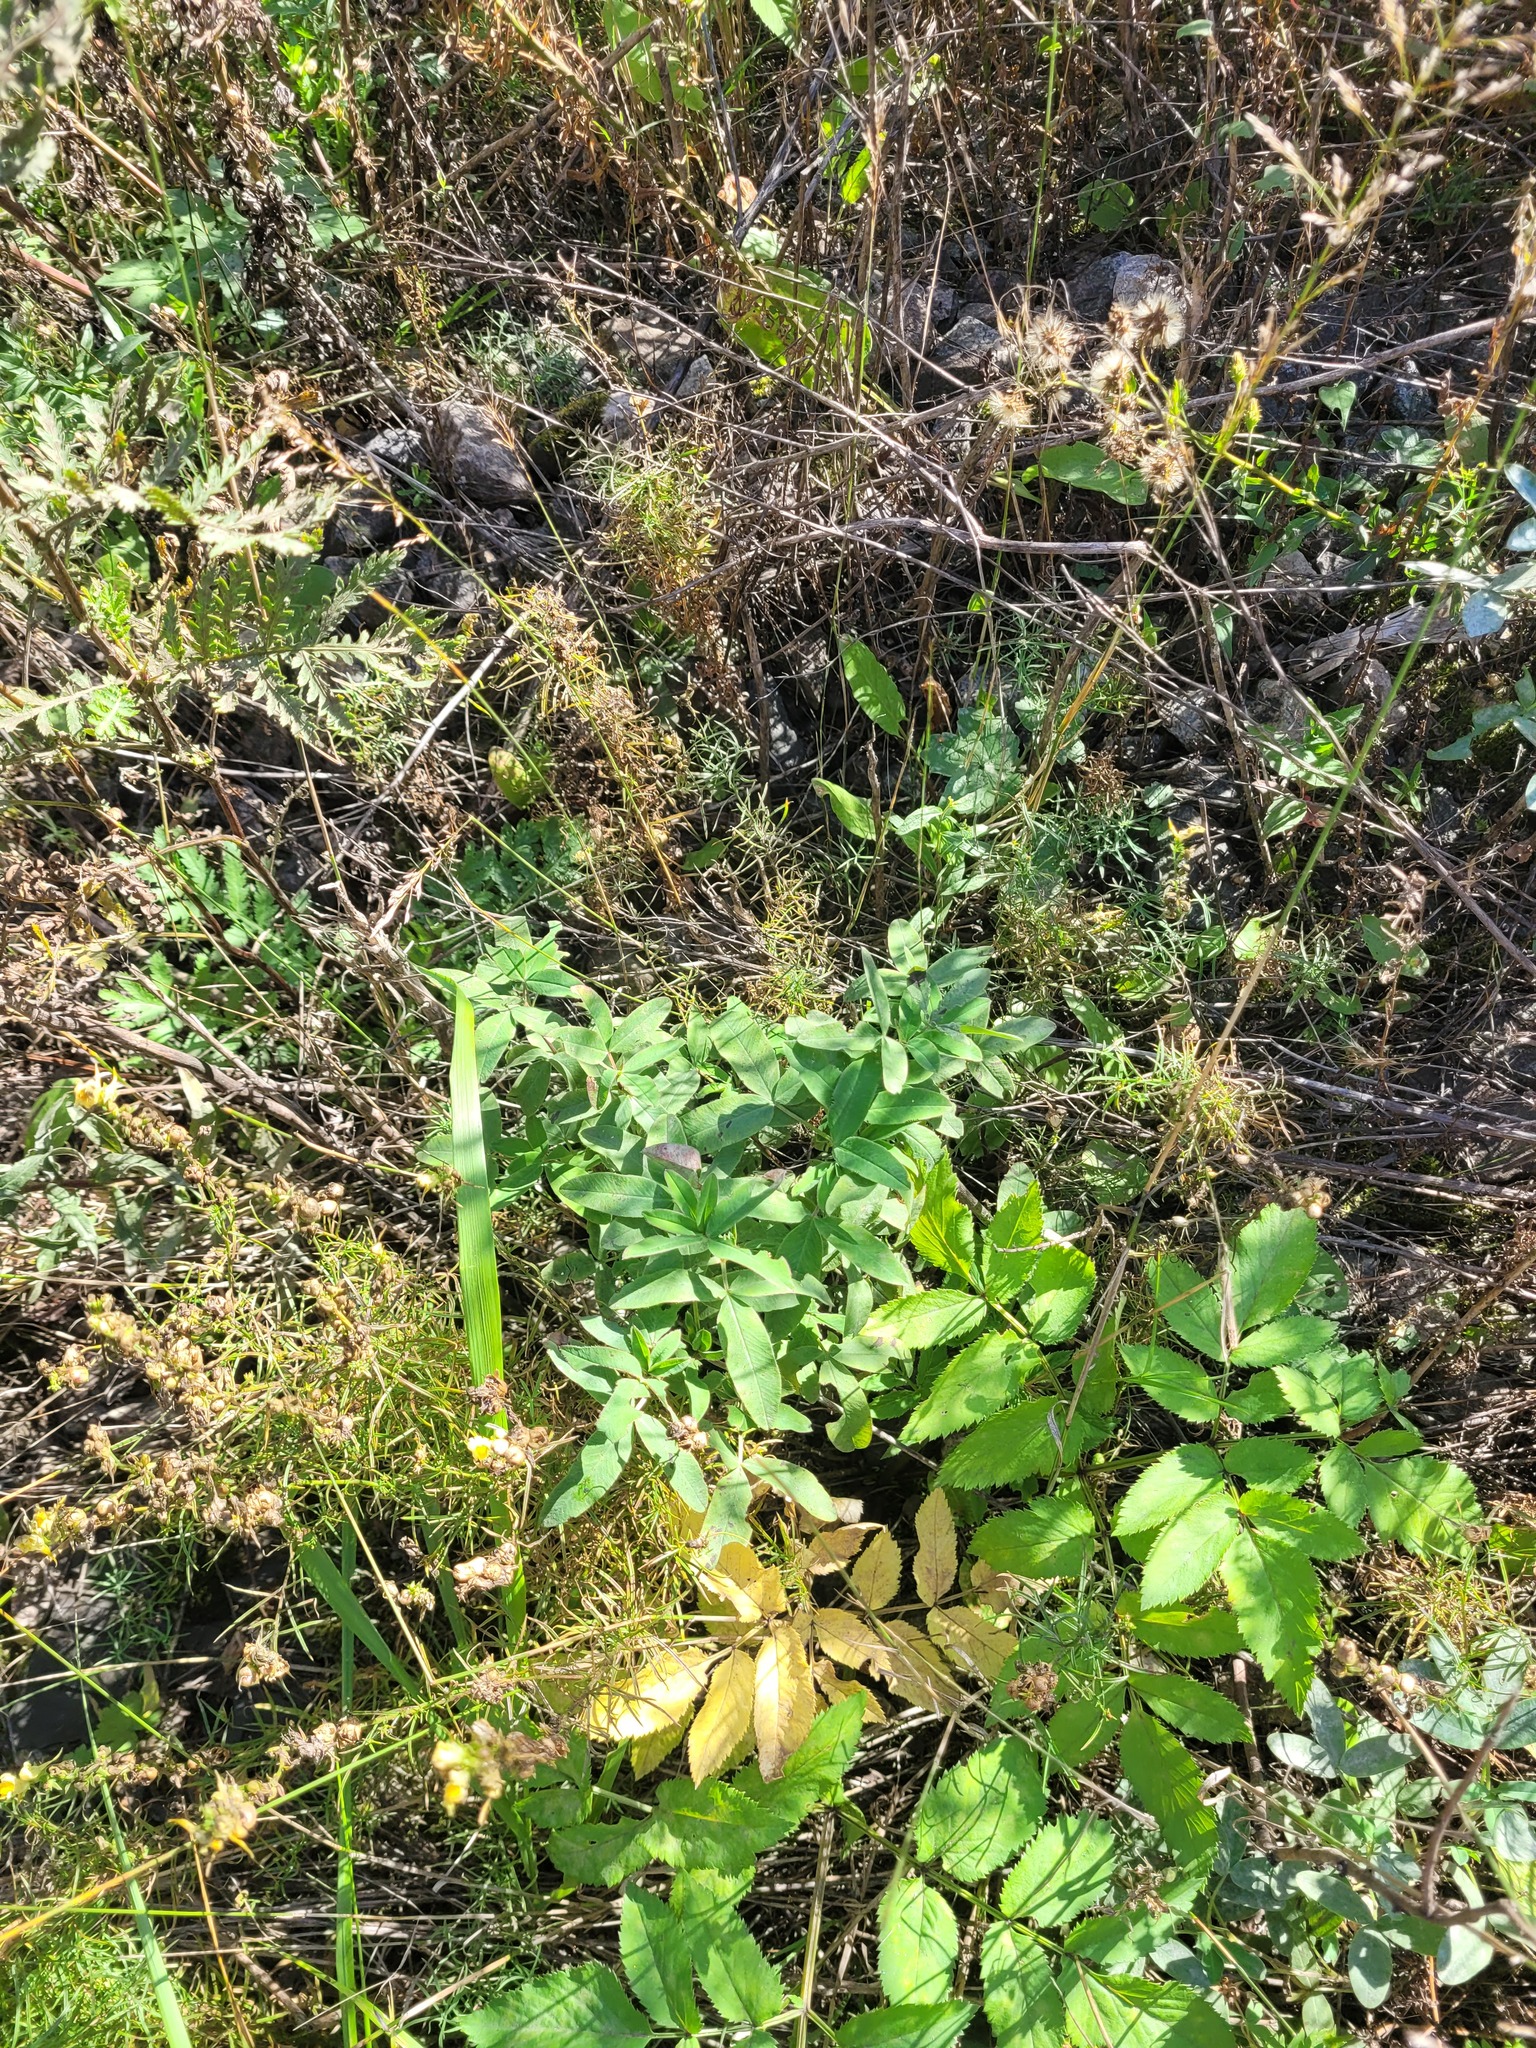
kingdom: Plantae
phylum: Tracheophyta
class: Magnoliopsida
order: Fabales
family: Fabaceae
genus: Trifolium
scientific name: Trifolium medium
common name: Zigzag clover
